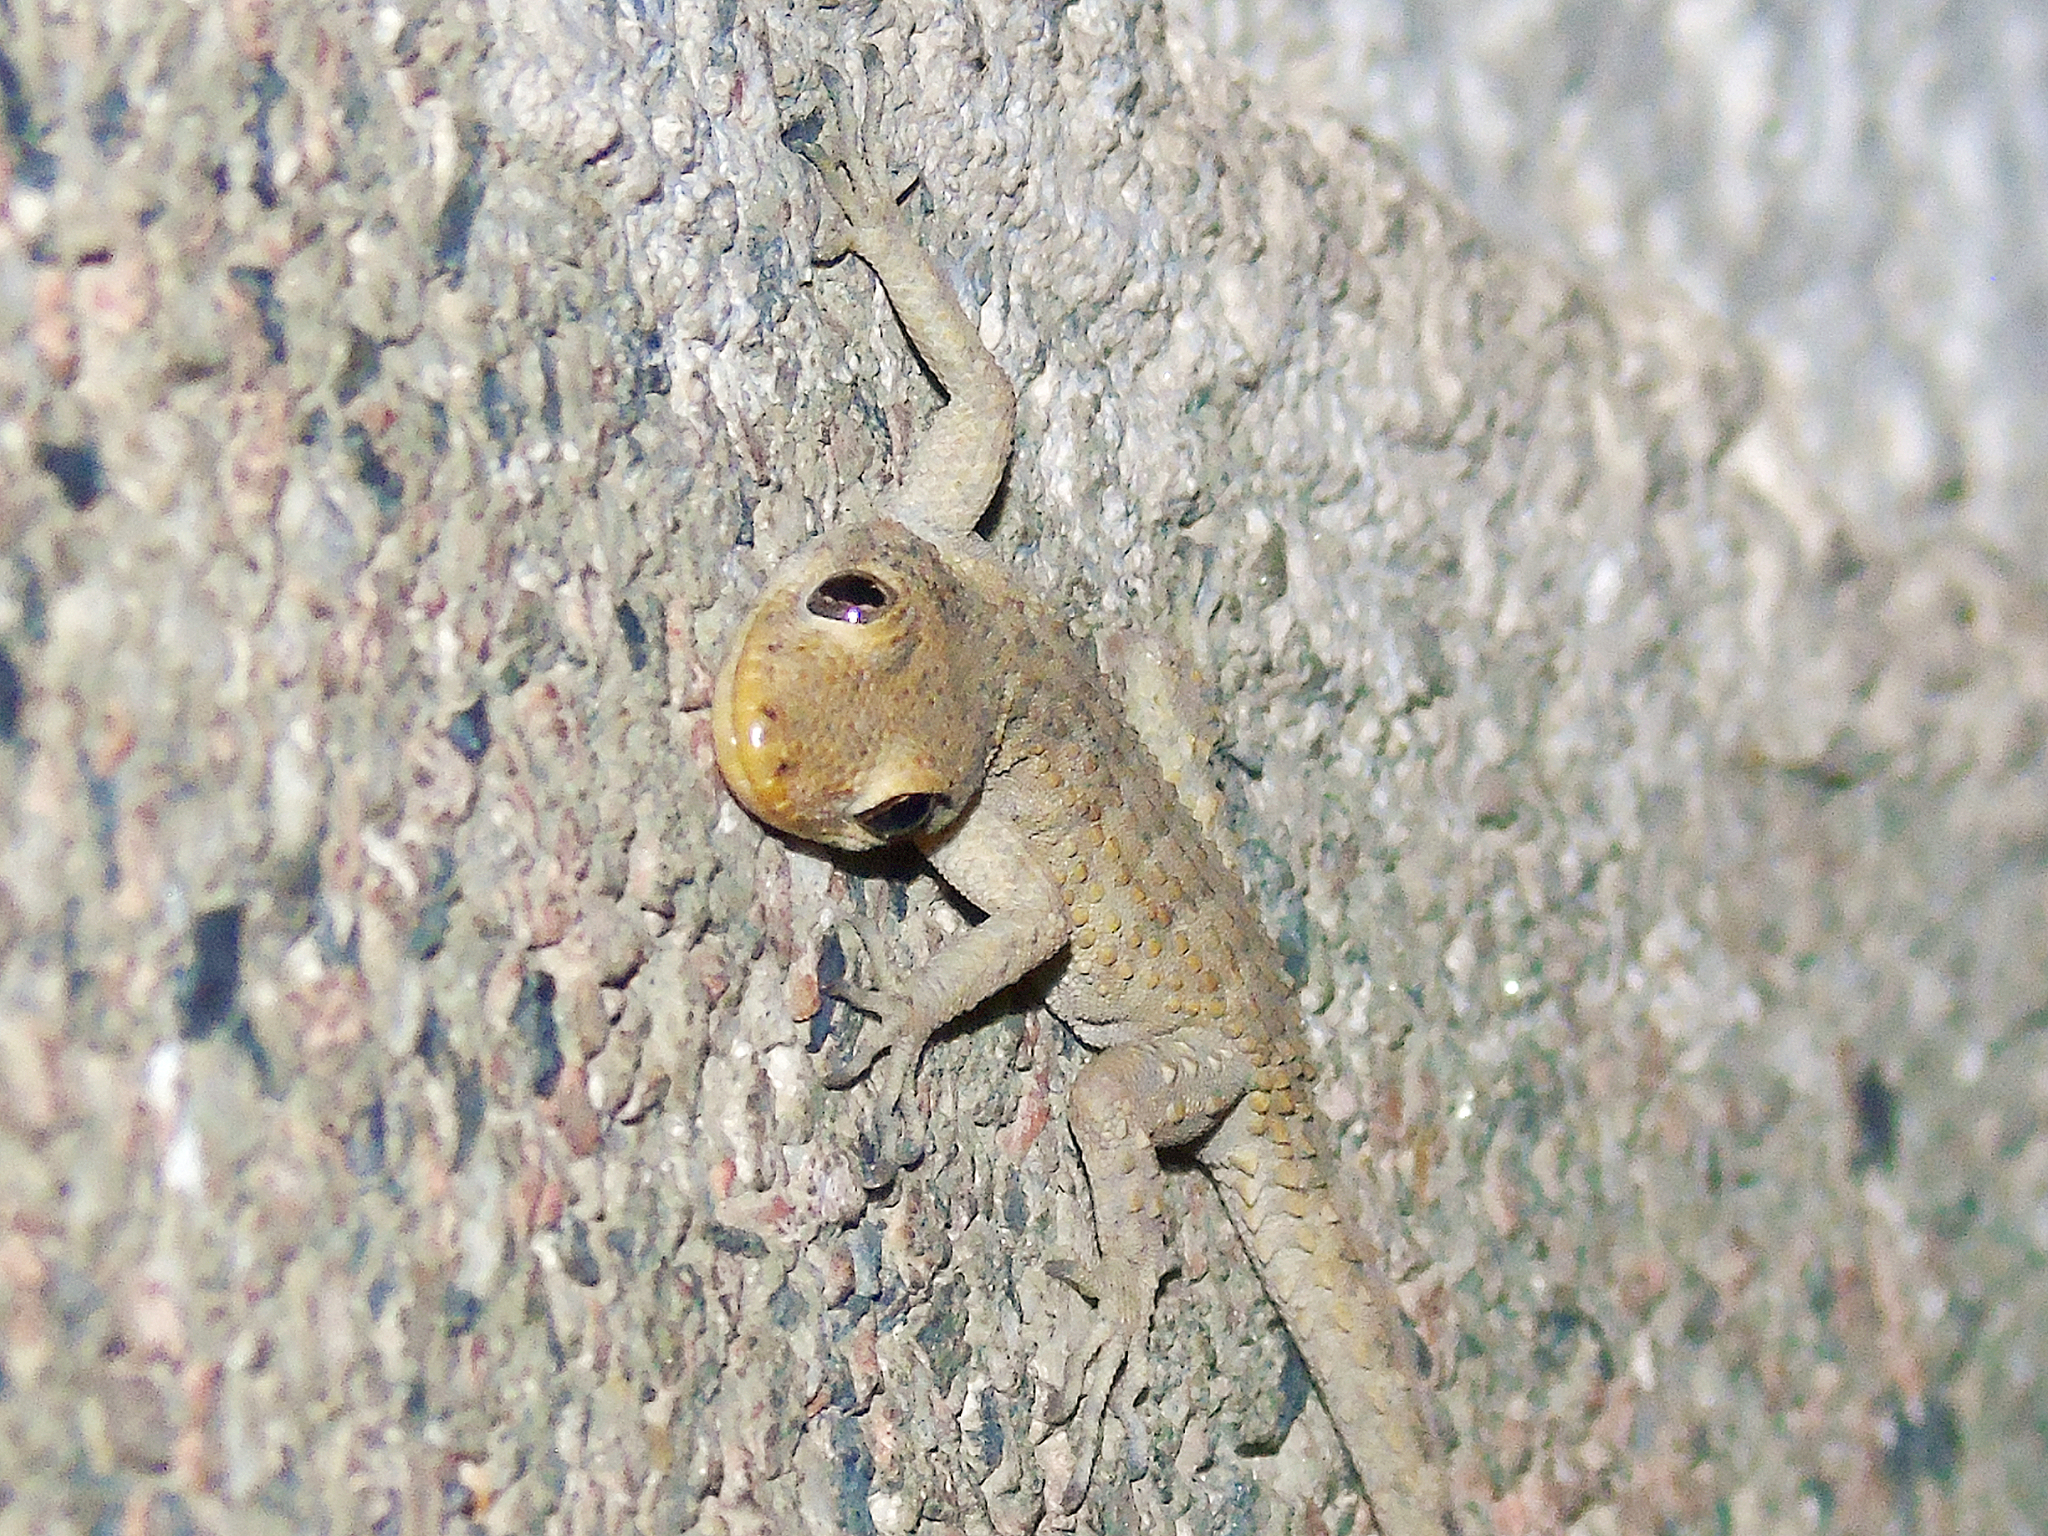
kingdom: Animalia
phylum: Chordata
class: Squamata
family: Gekkonidae
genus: Mediodactylus
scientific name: Mediodactylus kotschyi
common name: Kotschy's gecko
